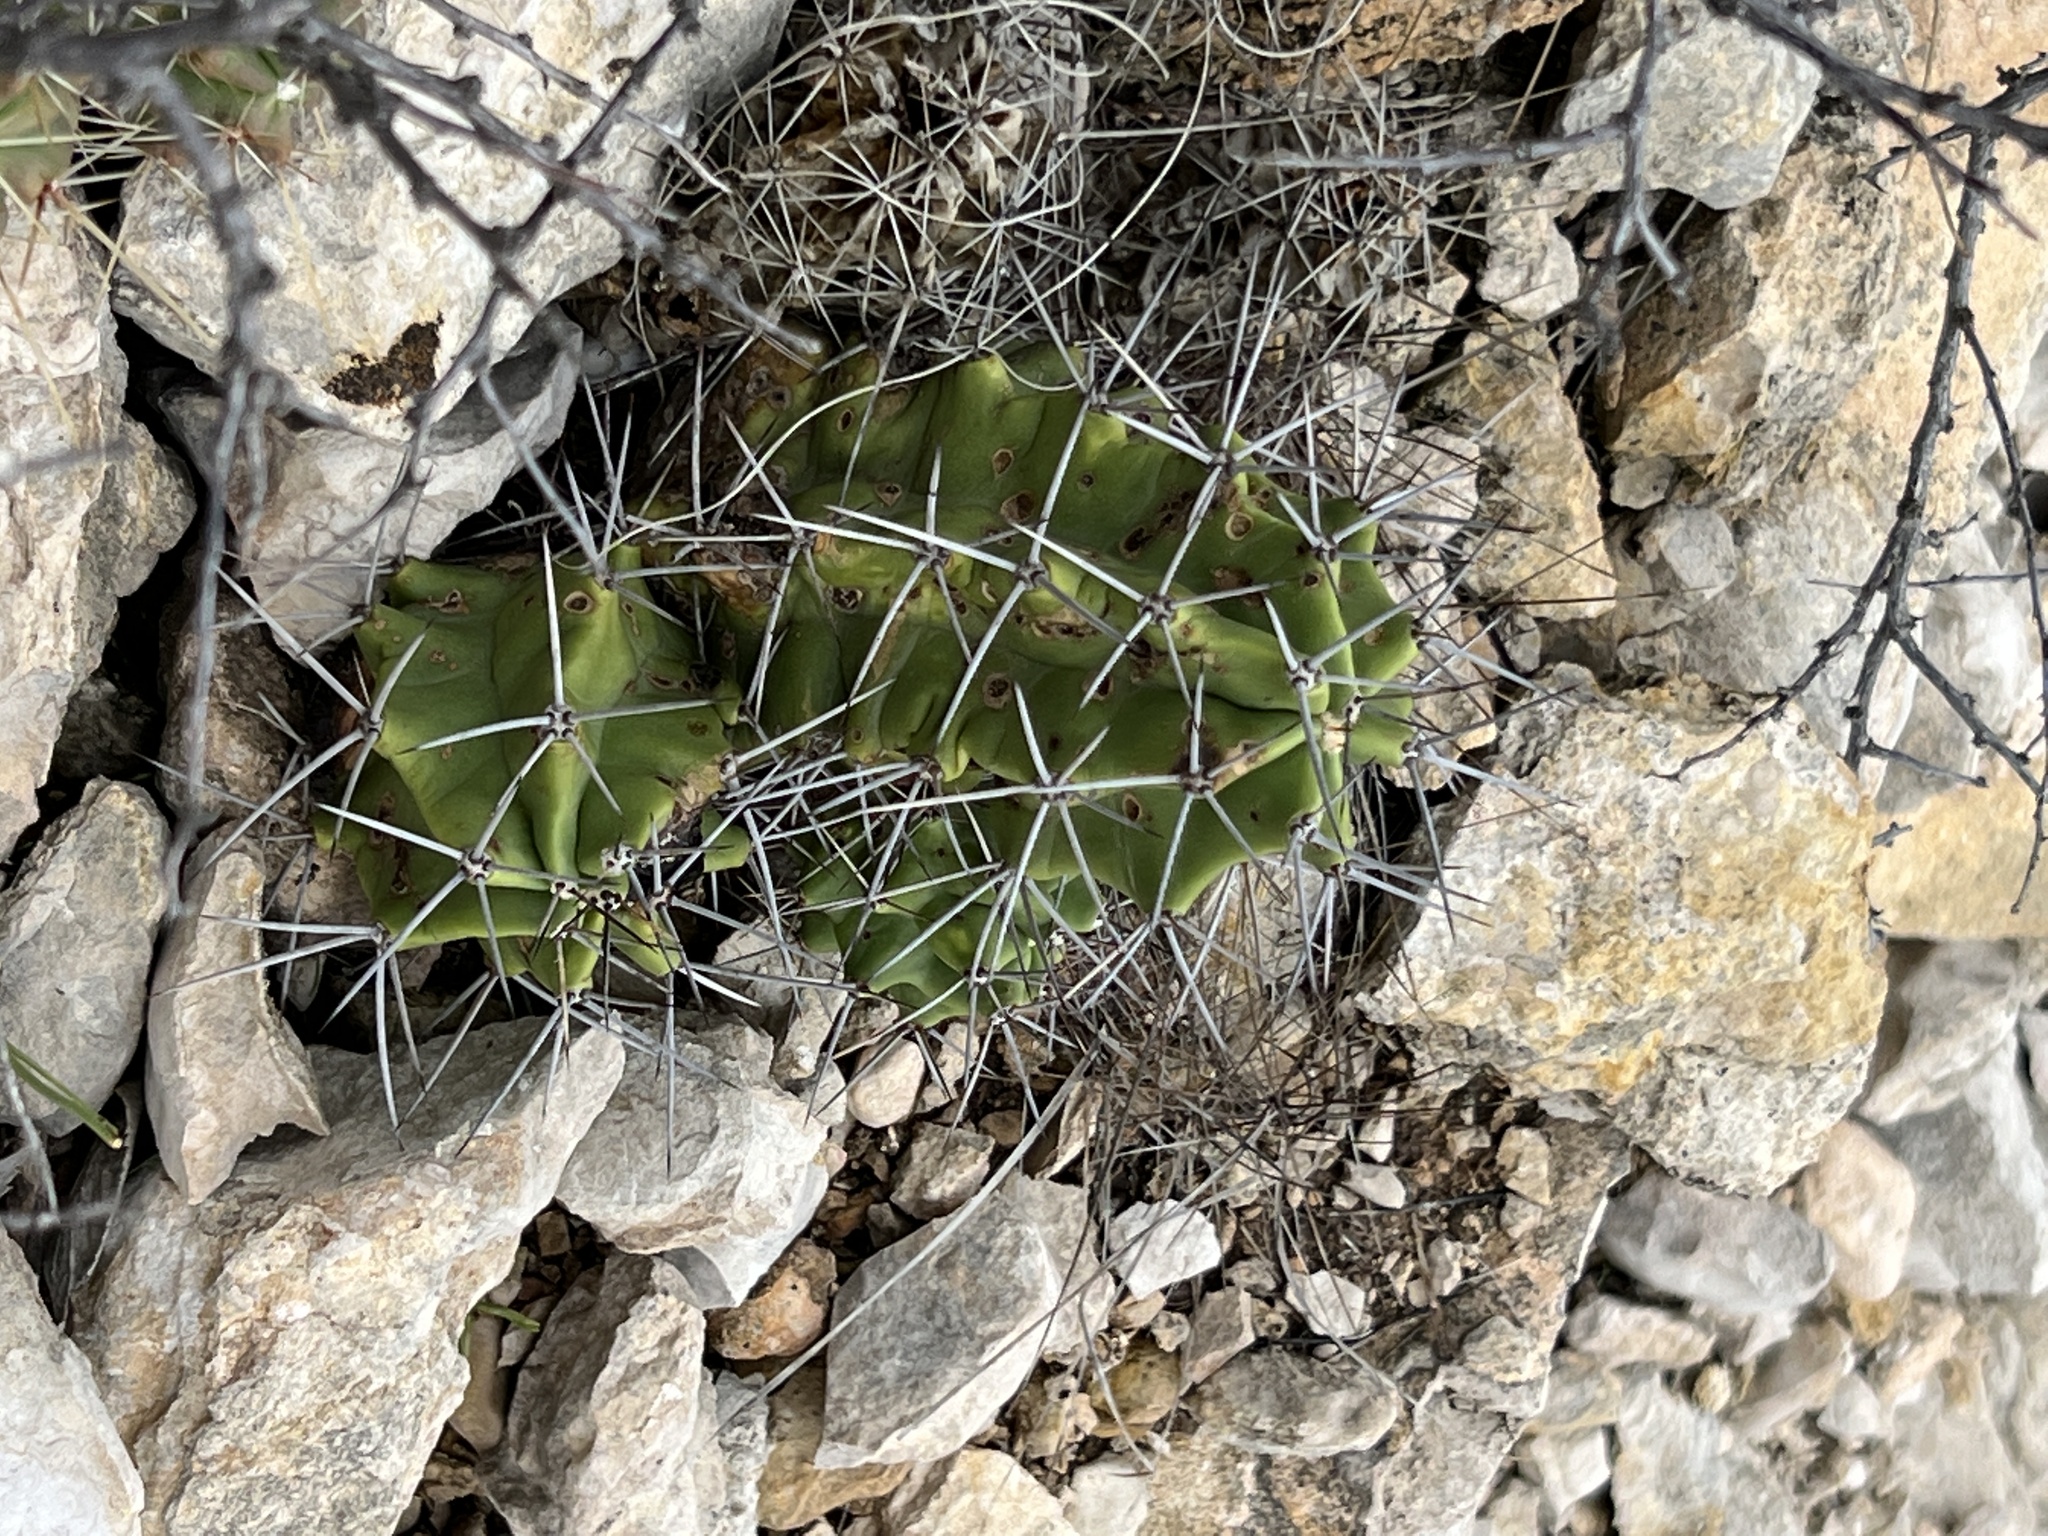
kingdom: Plantae
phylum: Tracheophyta
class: Magnoliopsida
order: Caryophyllales
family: Cactaceae
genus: Echinocereus
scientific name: Echinocereus coccineus
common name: Scarlet hedgehog cactus
